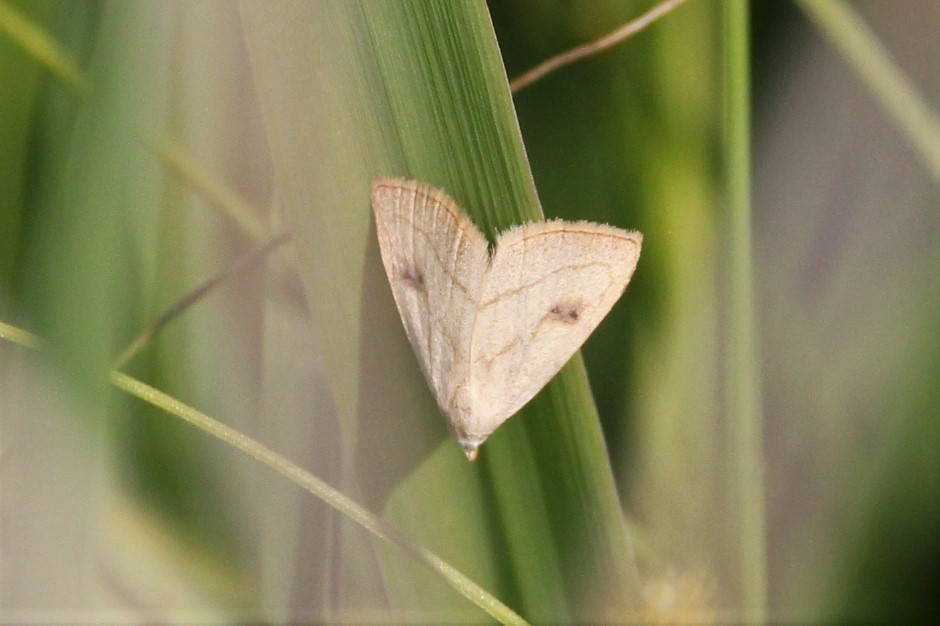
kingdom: Animalia
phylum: Arthropoda
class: Insecta
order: Lepidoptera
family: Erebidae
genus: Rivula
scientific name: Rivula propinqualis
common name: Spotted grass moth
